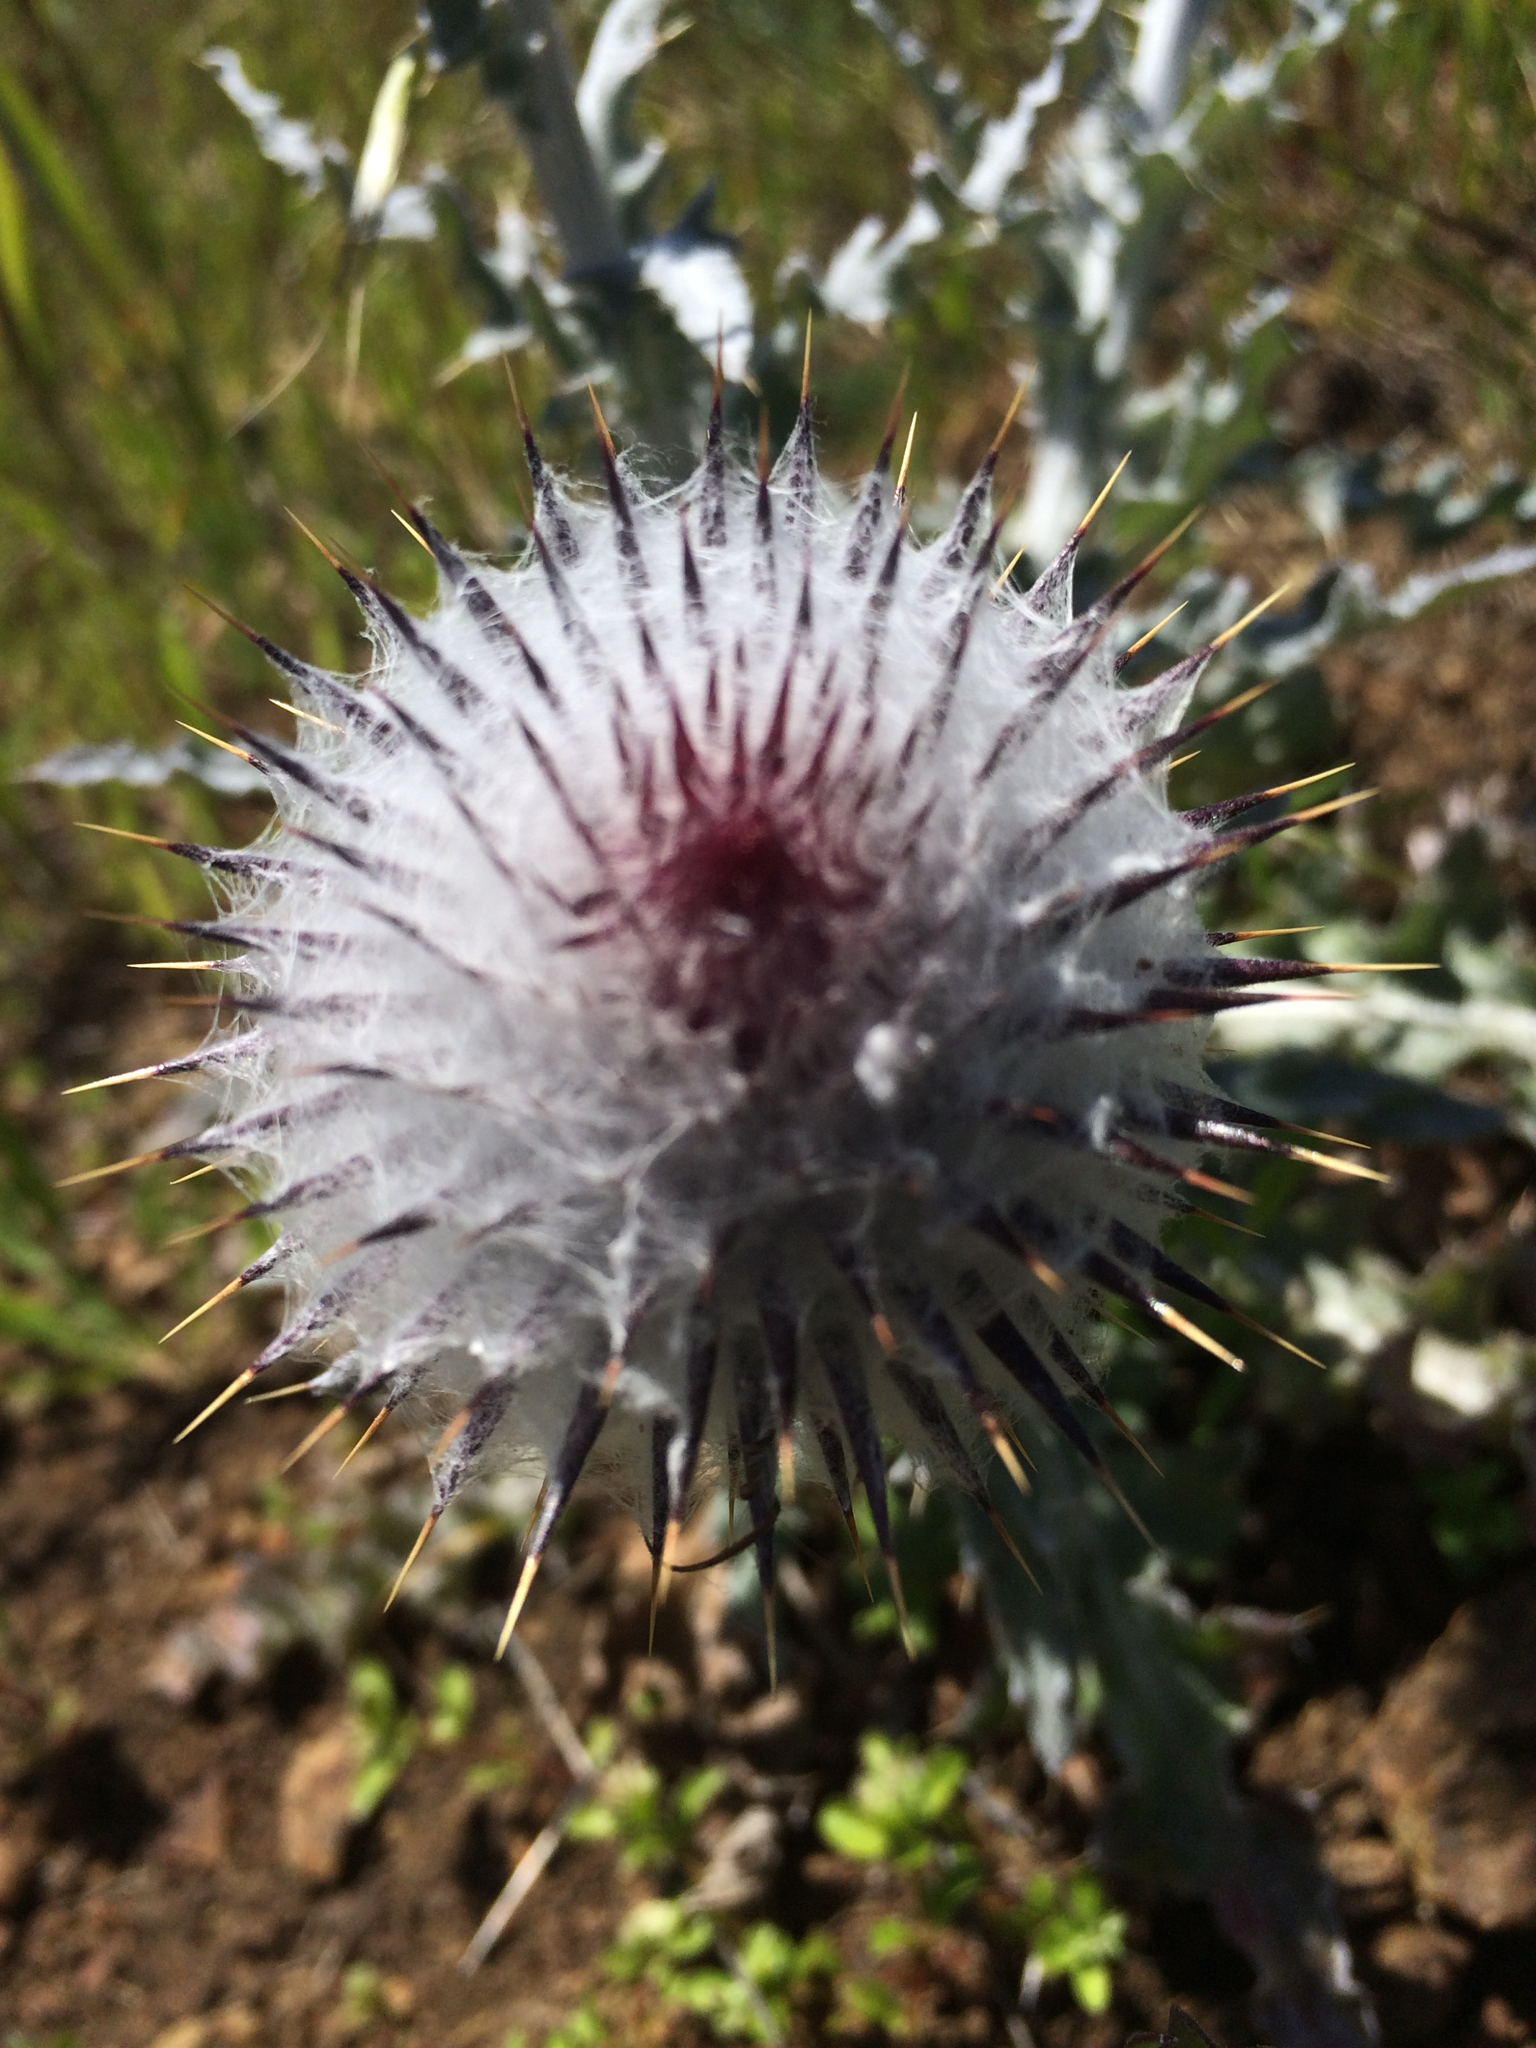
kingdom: Plantae
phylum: Tracheophyta
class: Magnoliopsida
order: Asterales
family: Asteraceae
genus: Cirsium
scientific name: Cirsium occidentale
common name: Western thistle
